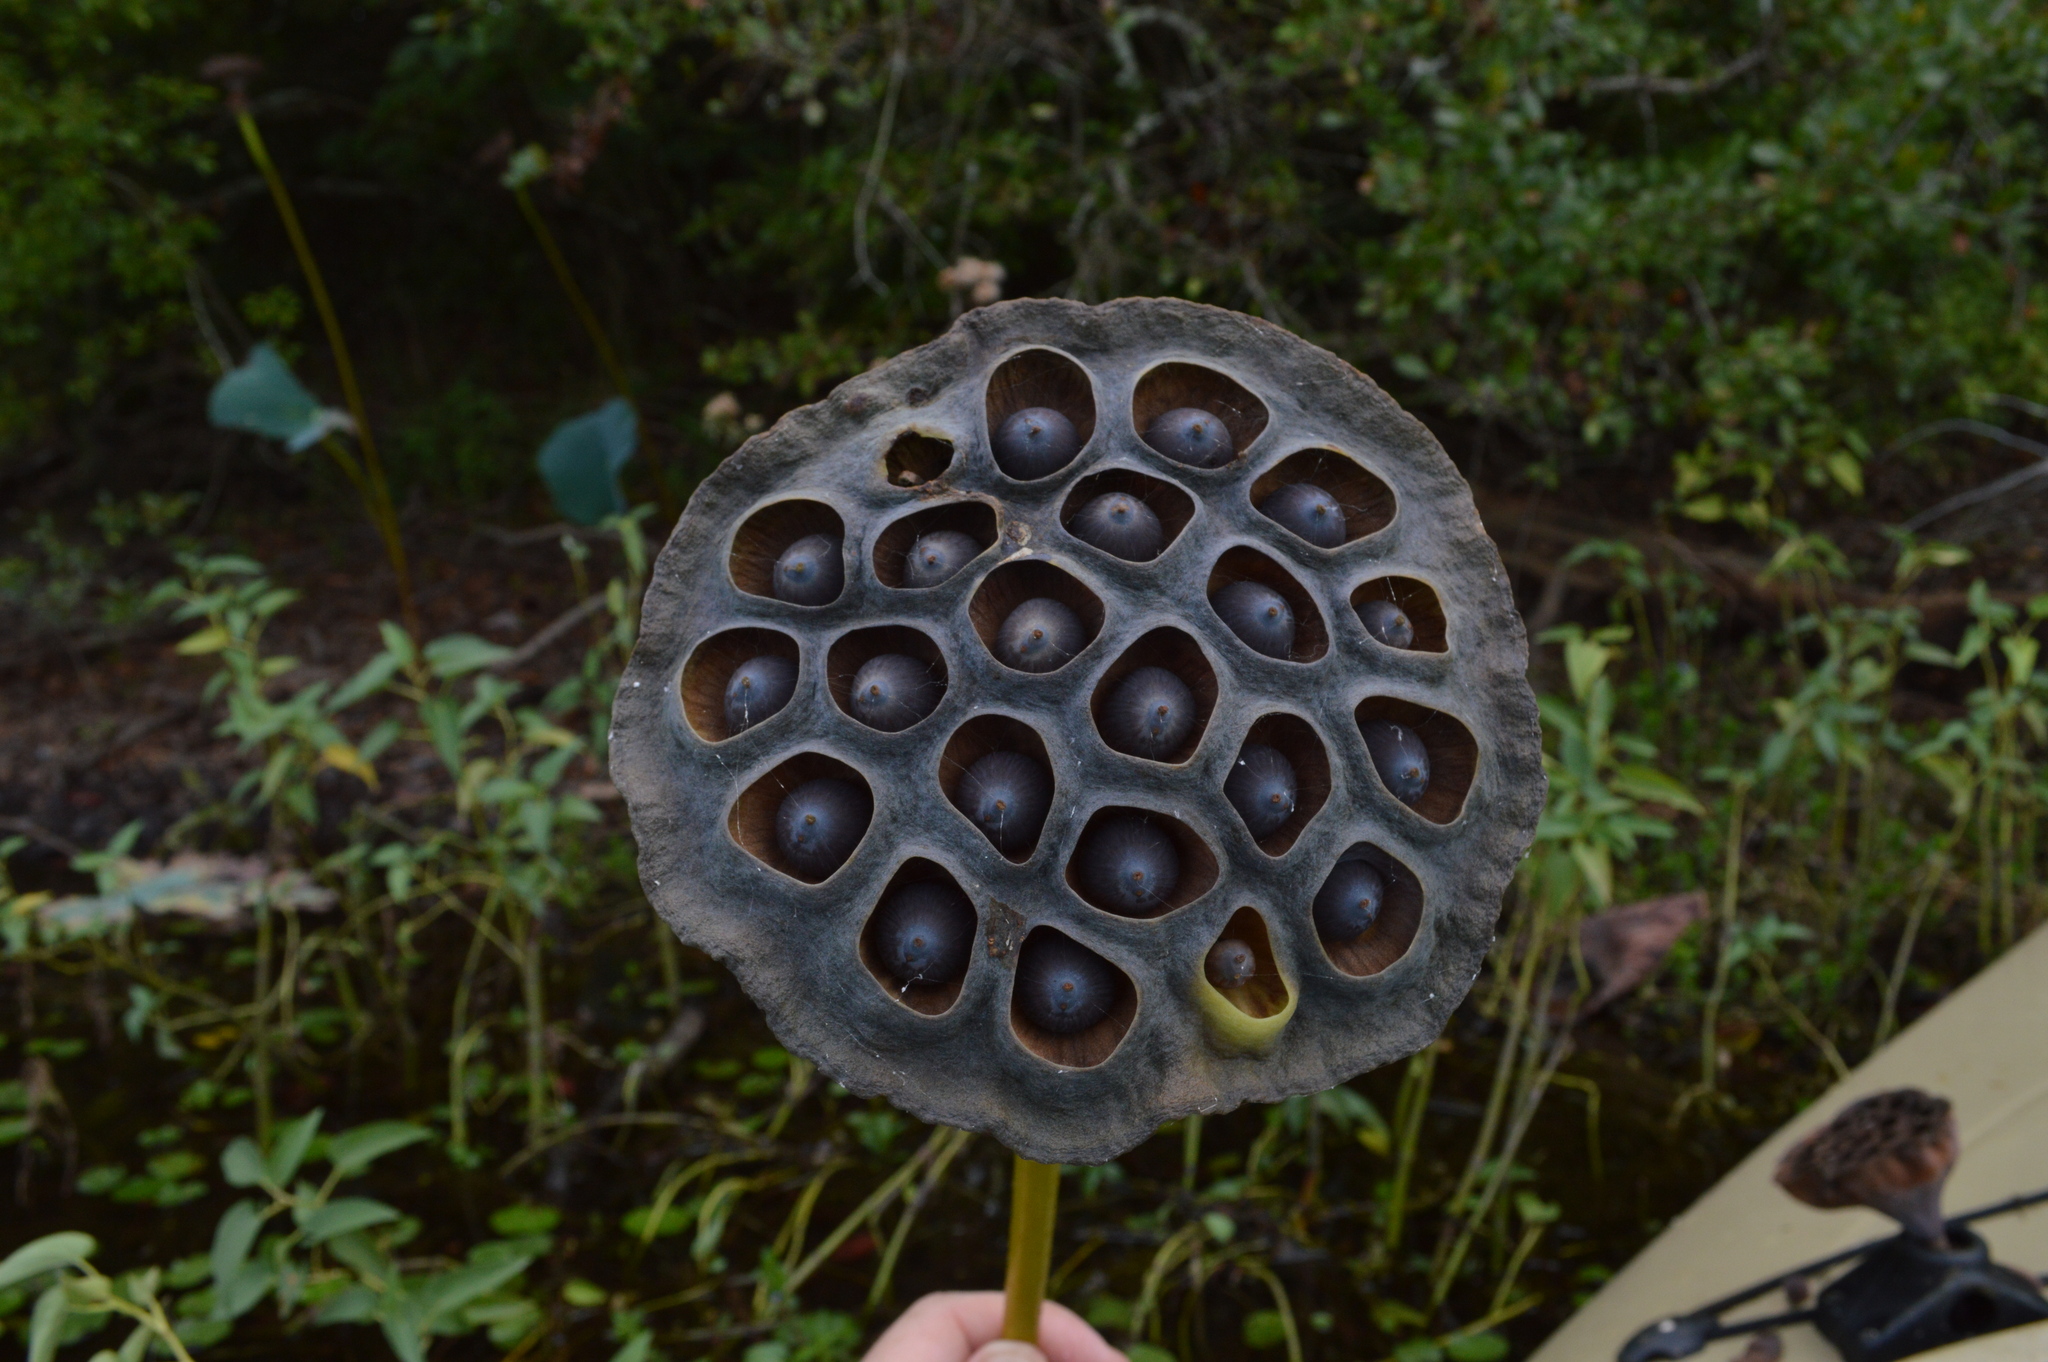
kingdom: Plantae
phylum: Tracheophyta
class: Magnoliopsida
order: Proteales
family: Nelumbonaceae
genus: Nelumbo
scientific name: Nelumbo lutea
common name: American lotus
